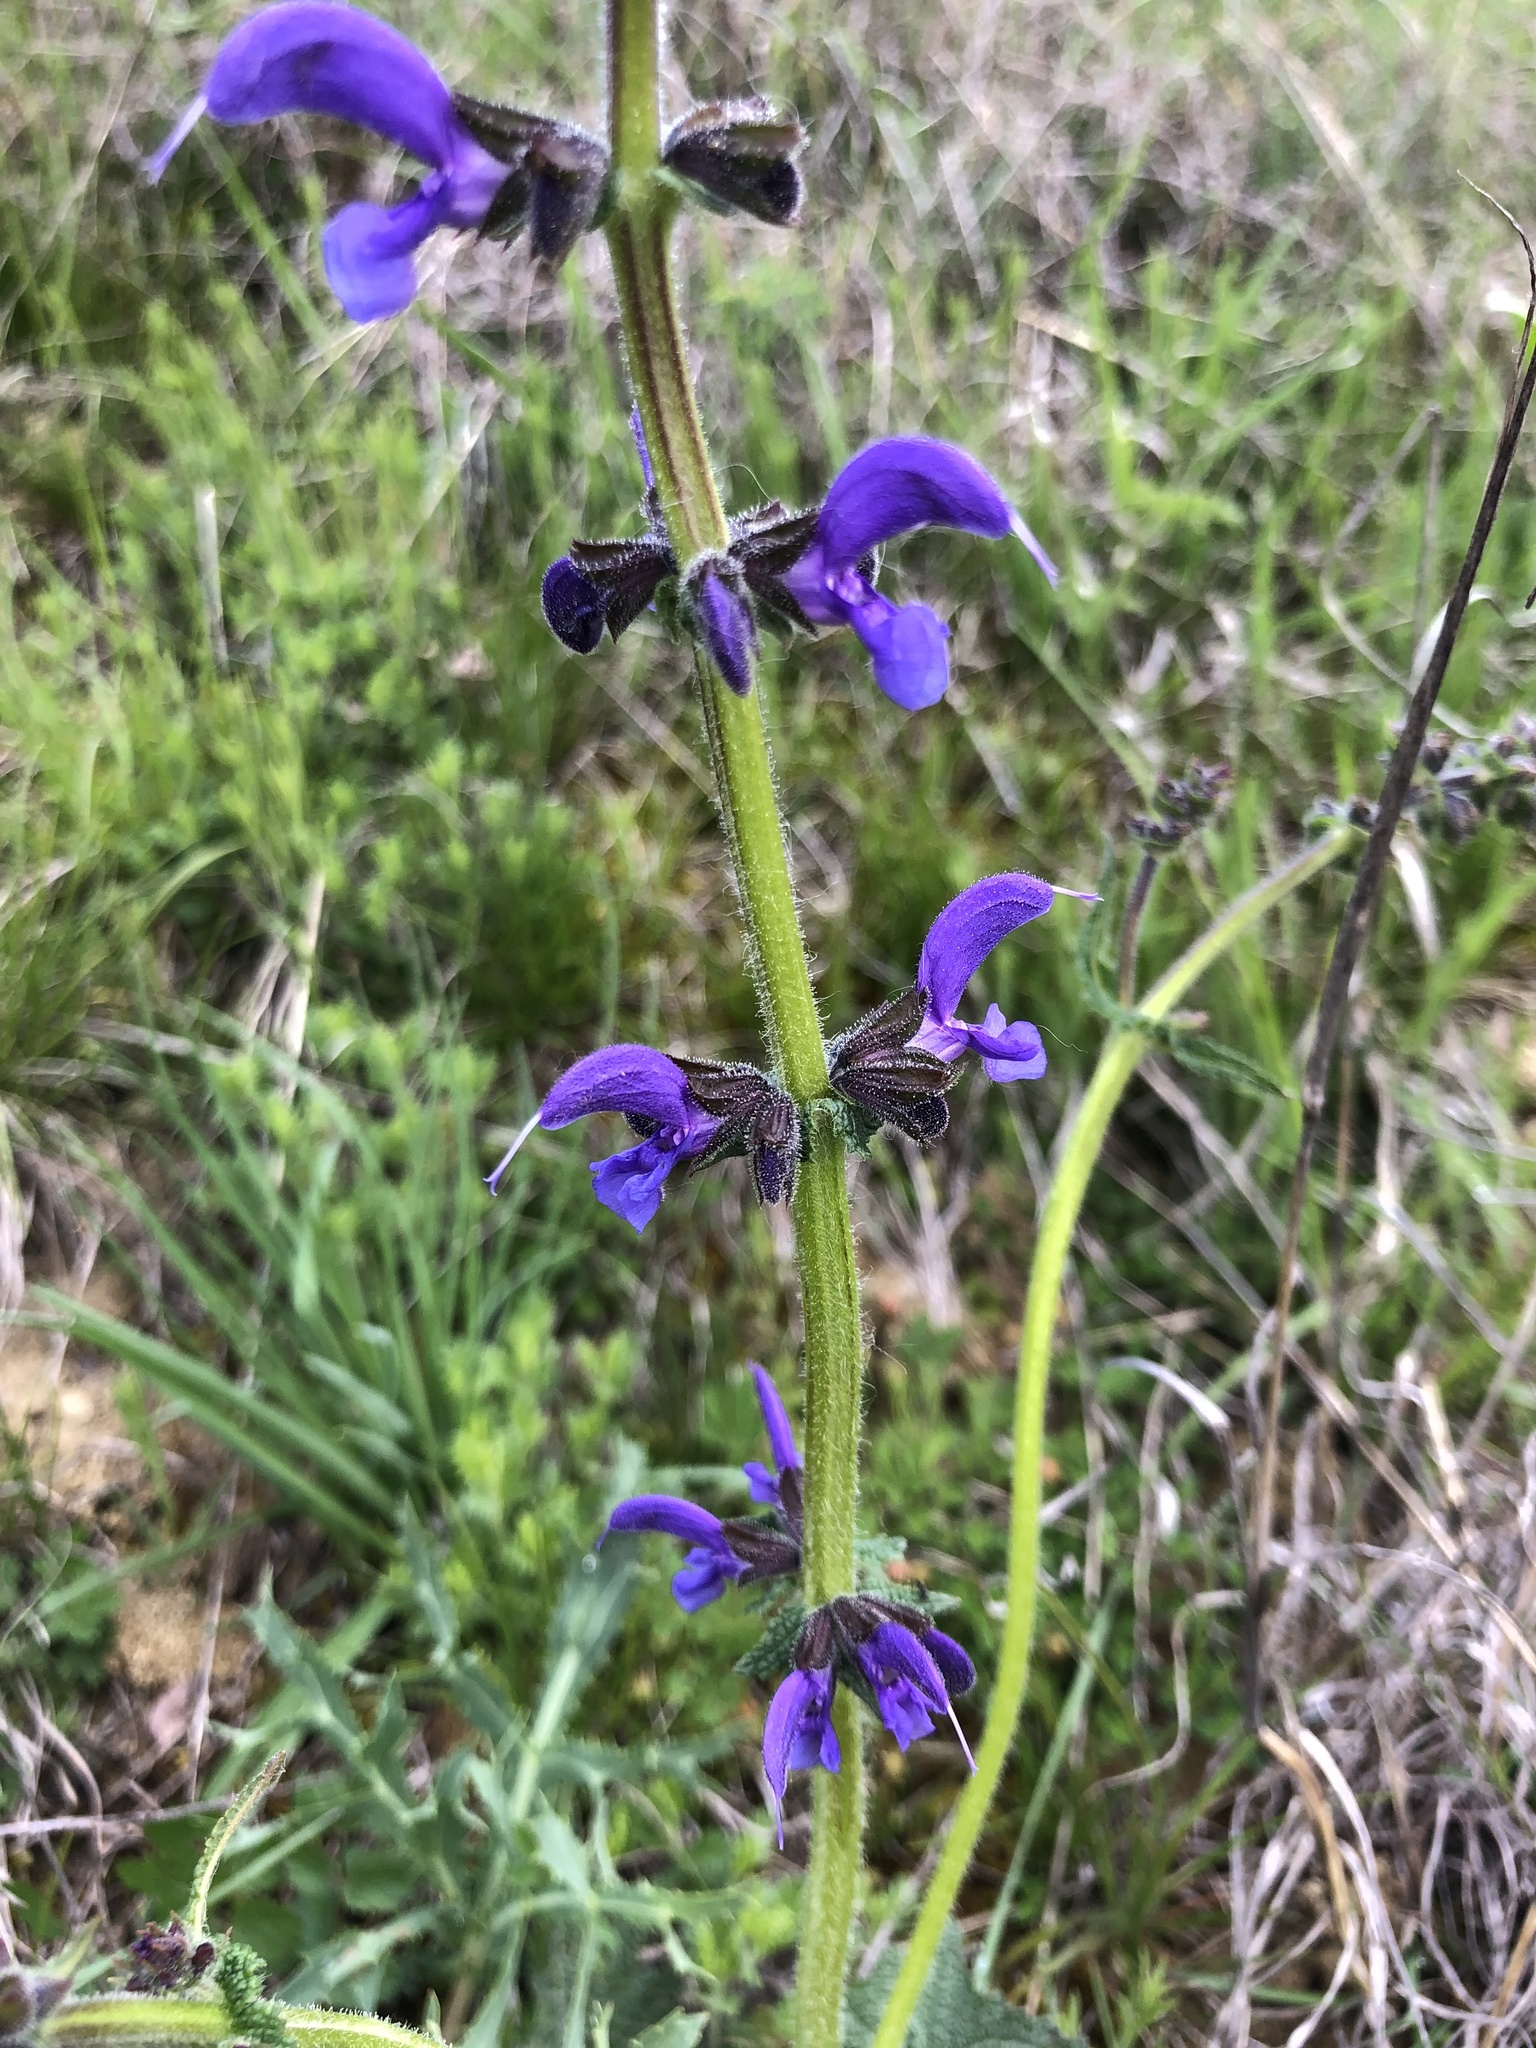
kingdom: Plantae
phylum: Tracheophyta
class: Magnoliopsida
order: Lamiales
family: Lamiaceae
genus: Salvia
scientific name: Salvia pratensis
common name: Meadow sage
